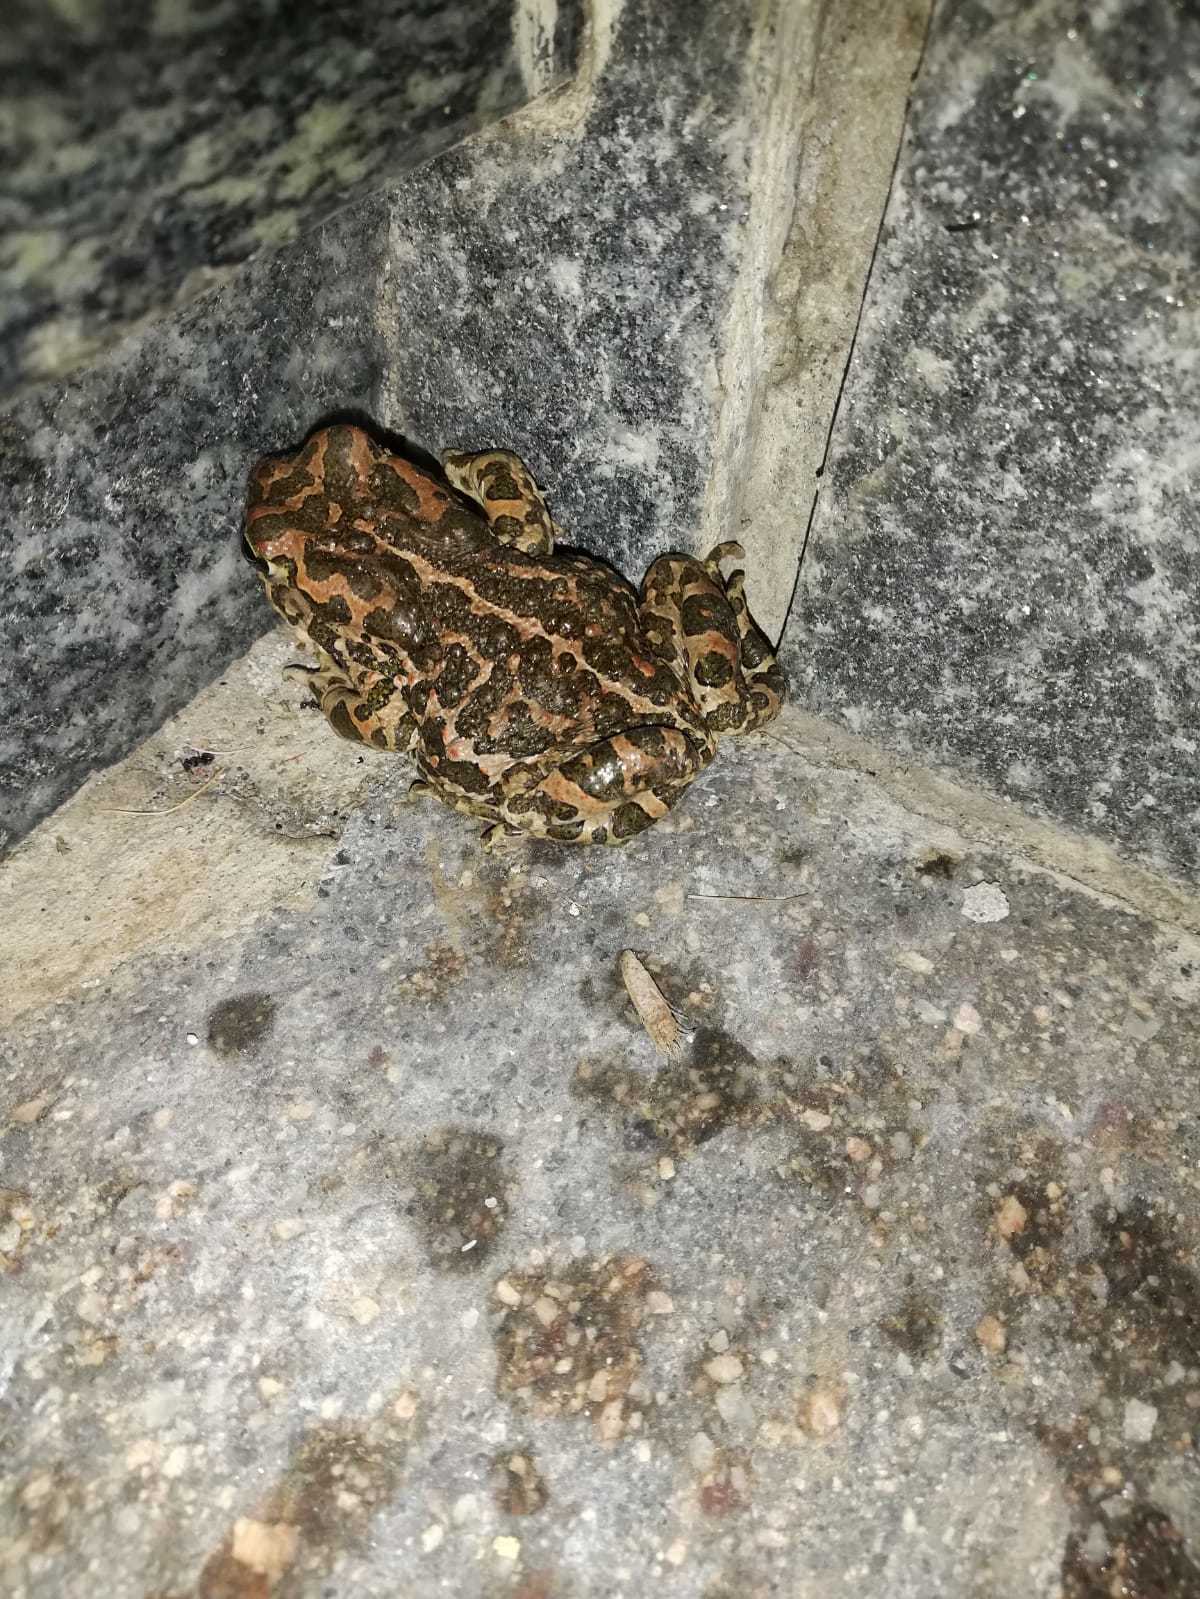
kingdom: Animalia
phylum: Chordata
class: Amphibia
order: Anura
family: Bufonidae
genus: Bufotes
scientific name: Bufotes viridis
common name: European green toad
